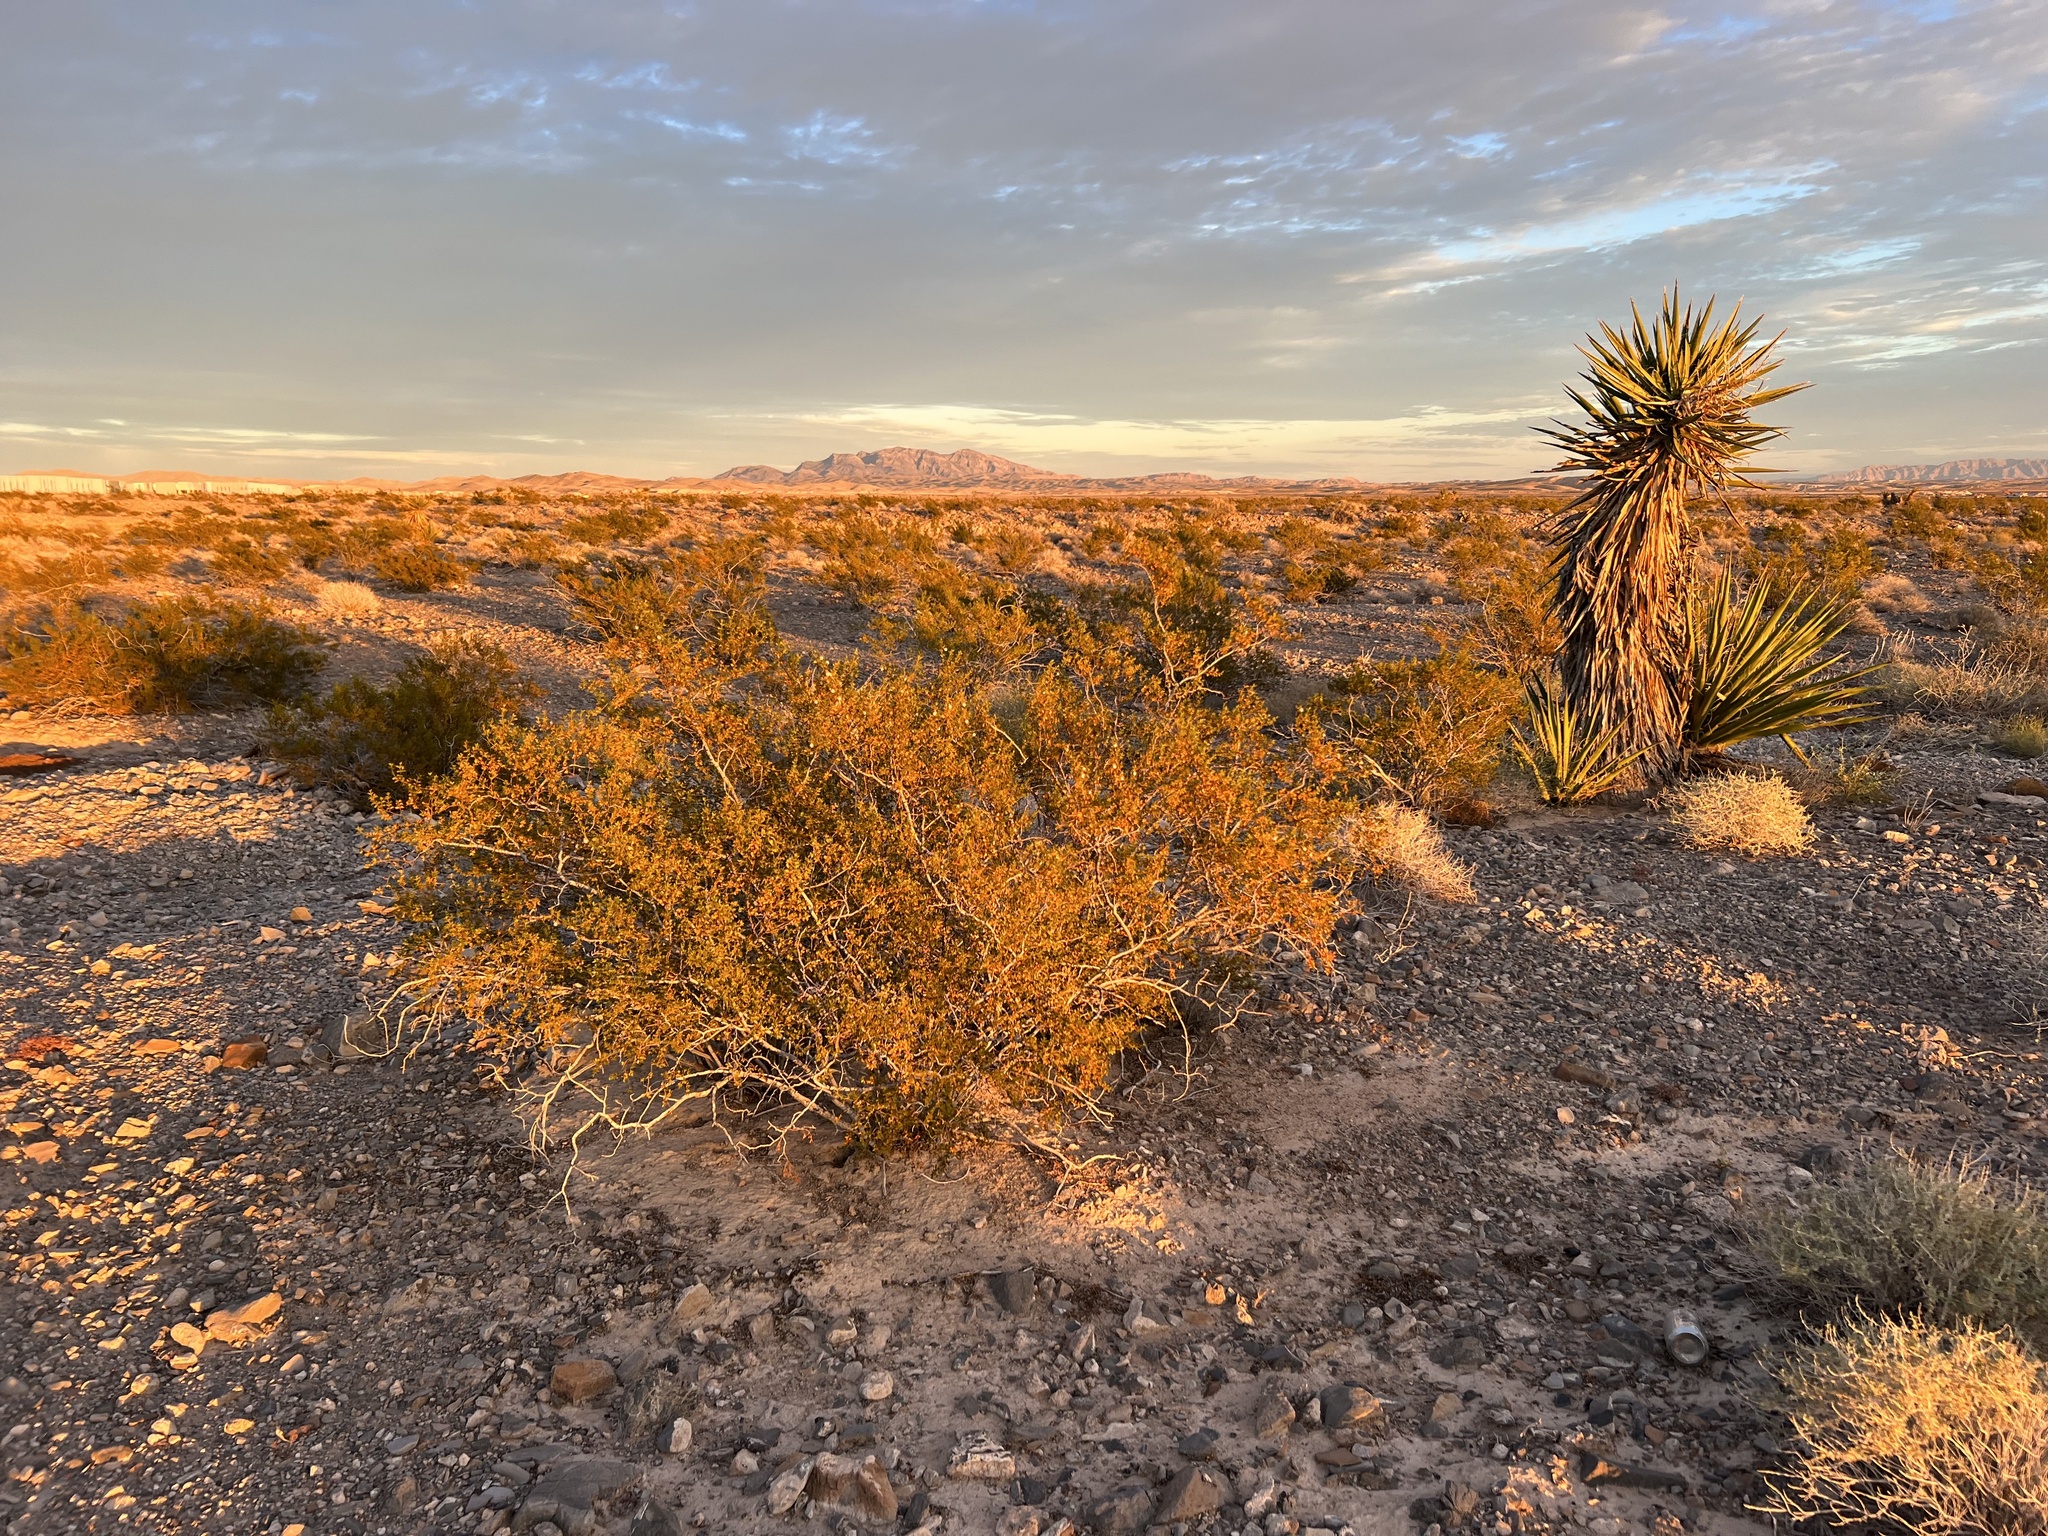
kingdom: Plantae
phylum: Tracheophyta
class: Magnoliopsida
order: Zygophyllales
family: Zygophyllaceae
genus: Larrea
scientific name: Larrea tridentata
